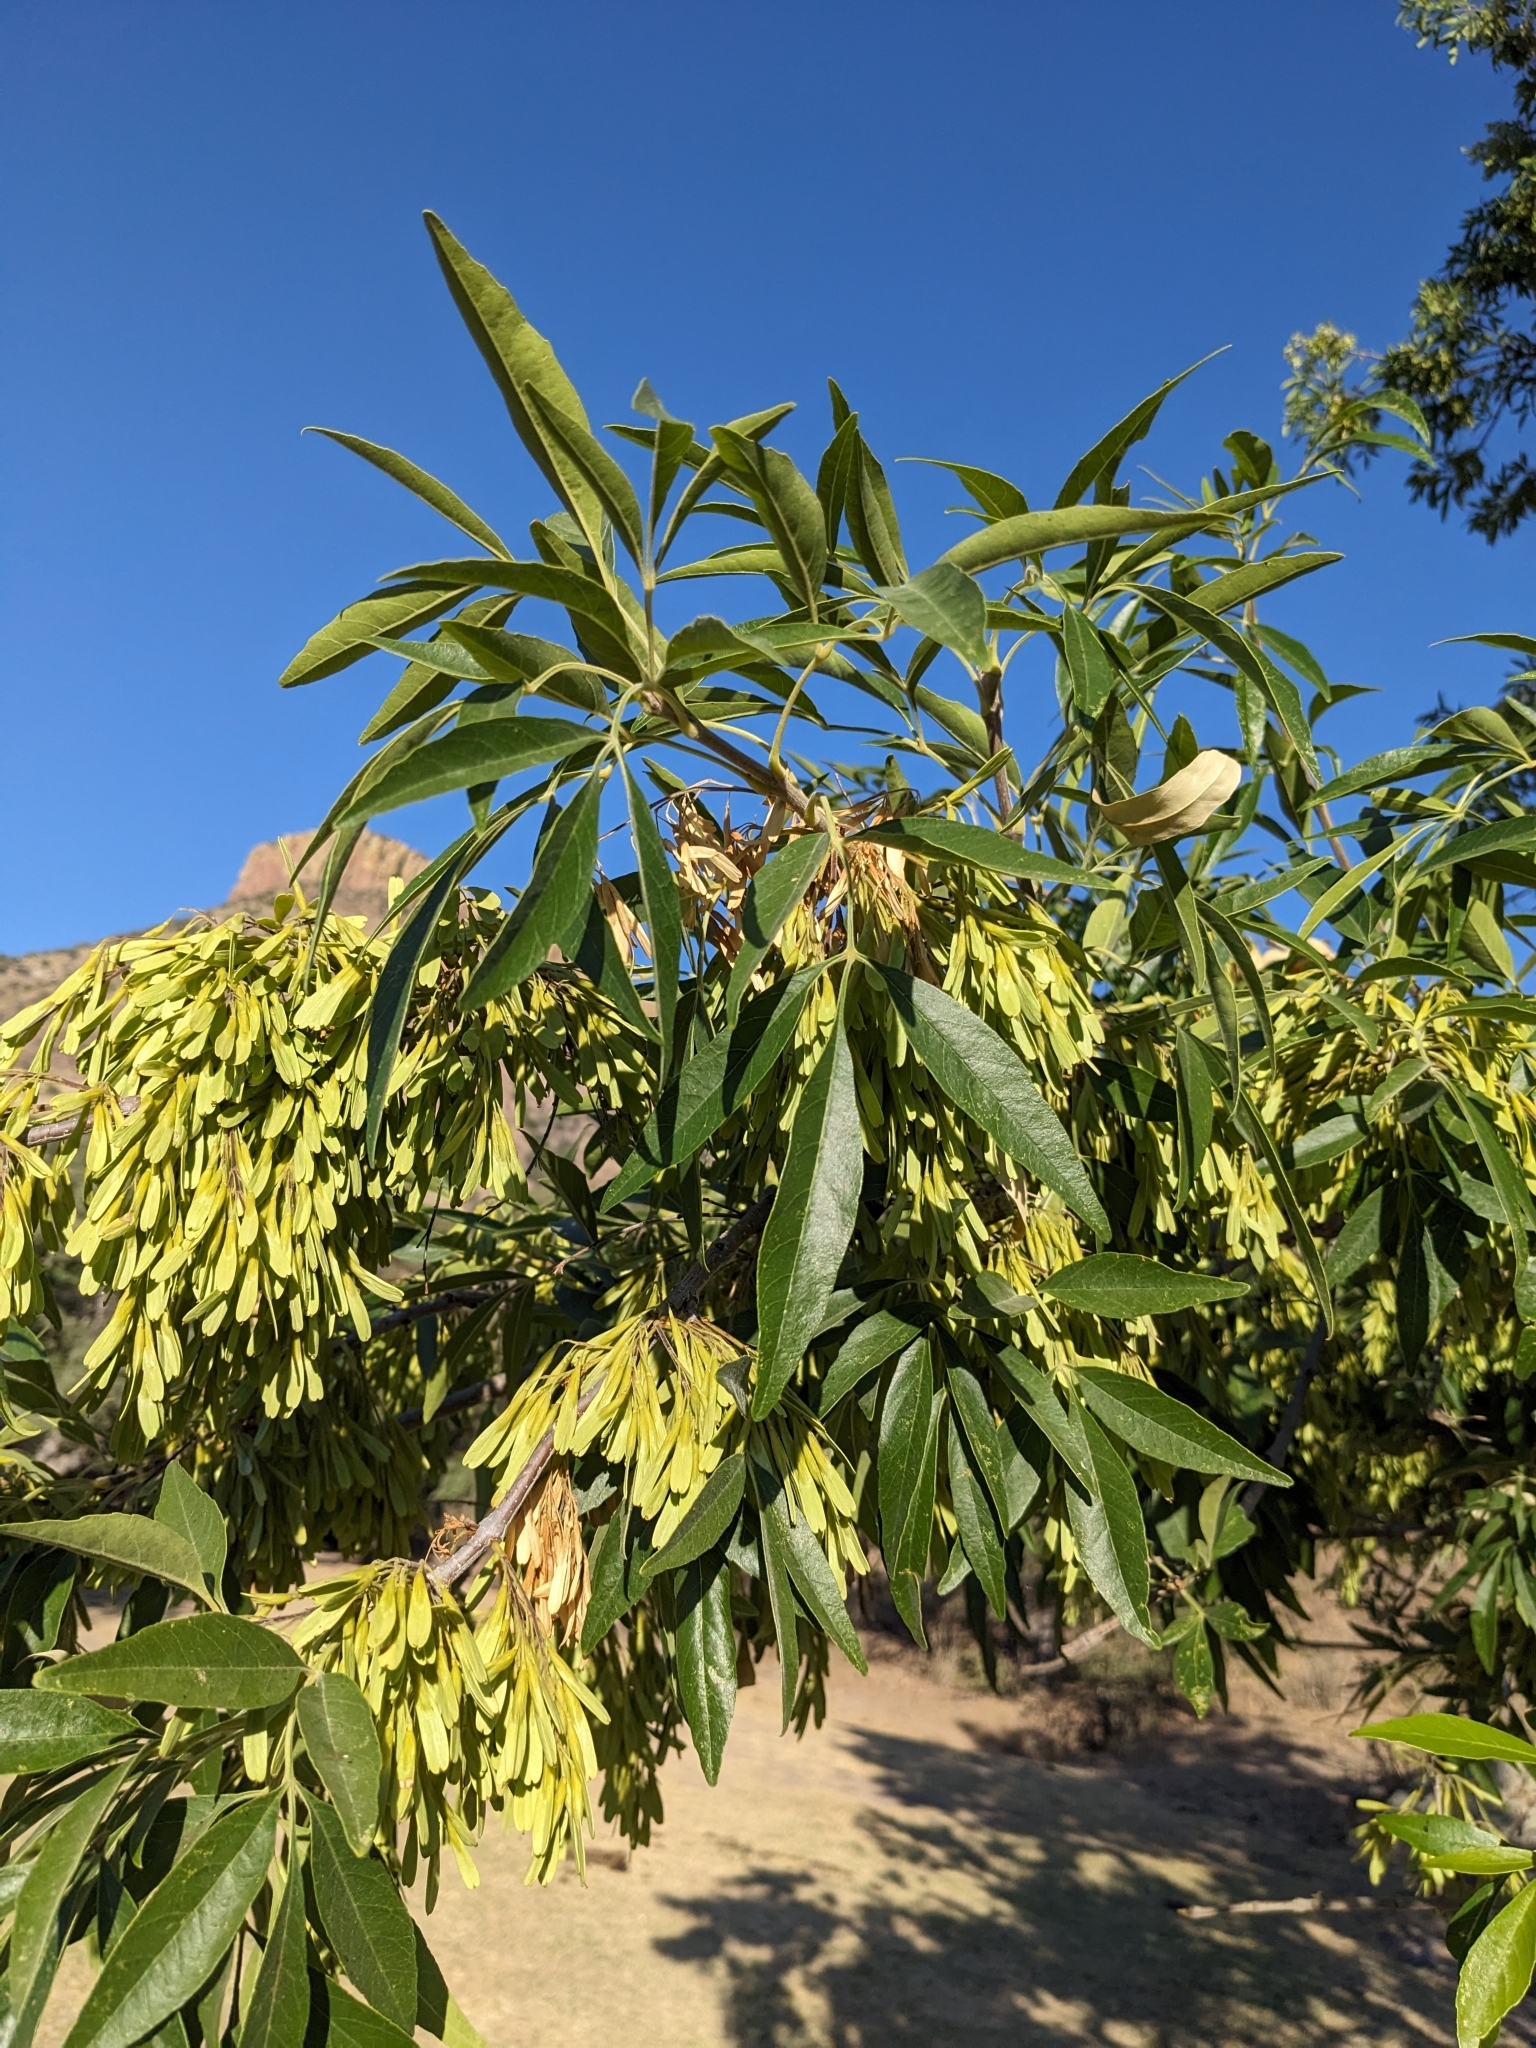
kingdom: Plantae
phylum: Tracheophyta
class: Magnoliopsida
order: Lamiales
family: Oleaceae
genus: Fraxinus
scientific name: Fraxinus velutina
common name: Arizon ash
